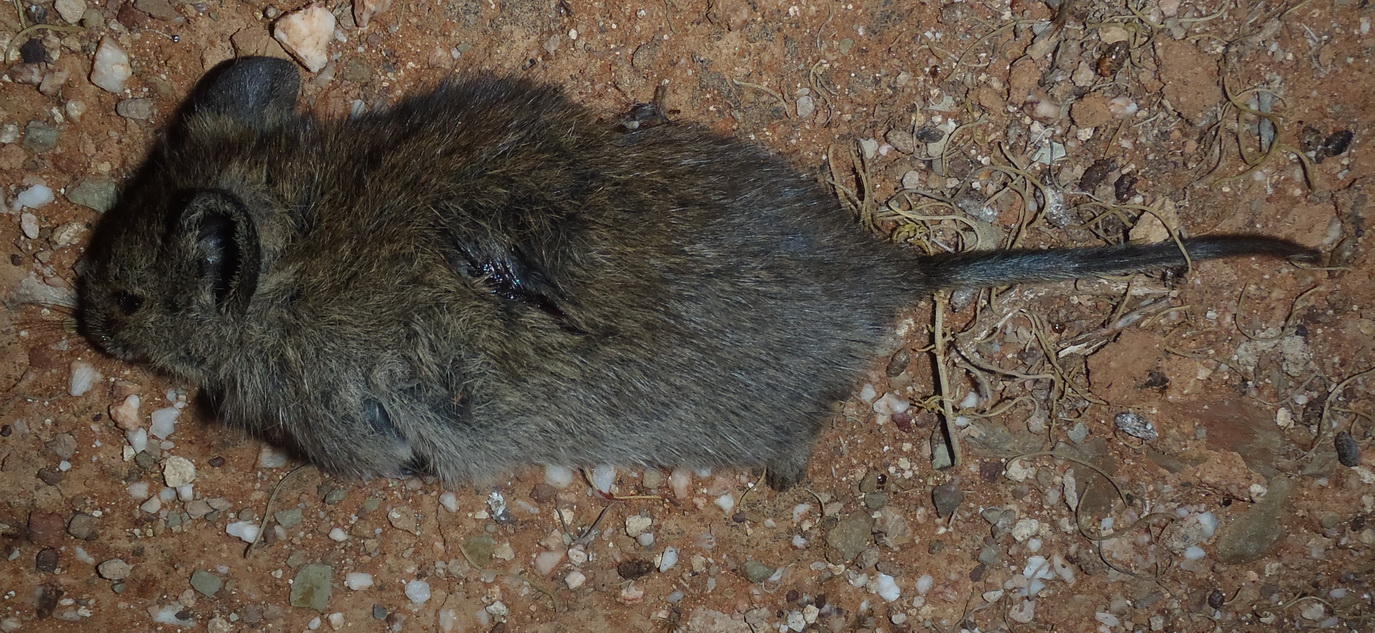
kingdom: Animalia
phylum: Chordata
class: Mammalia
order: Rodentia
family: Muridae
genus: Myotomys
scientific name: Myotomys unisulcatus
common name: Bush karroo rat
